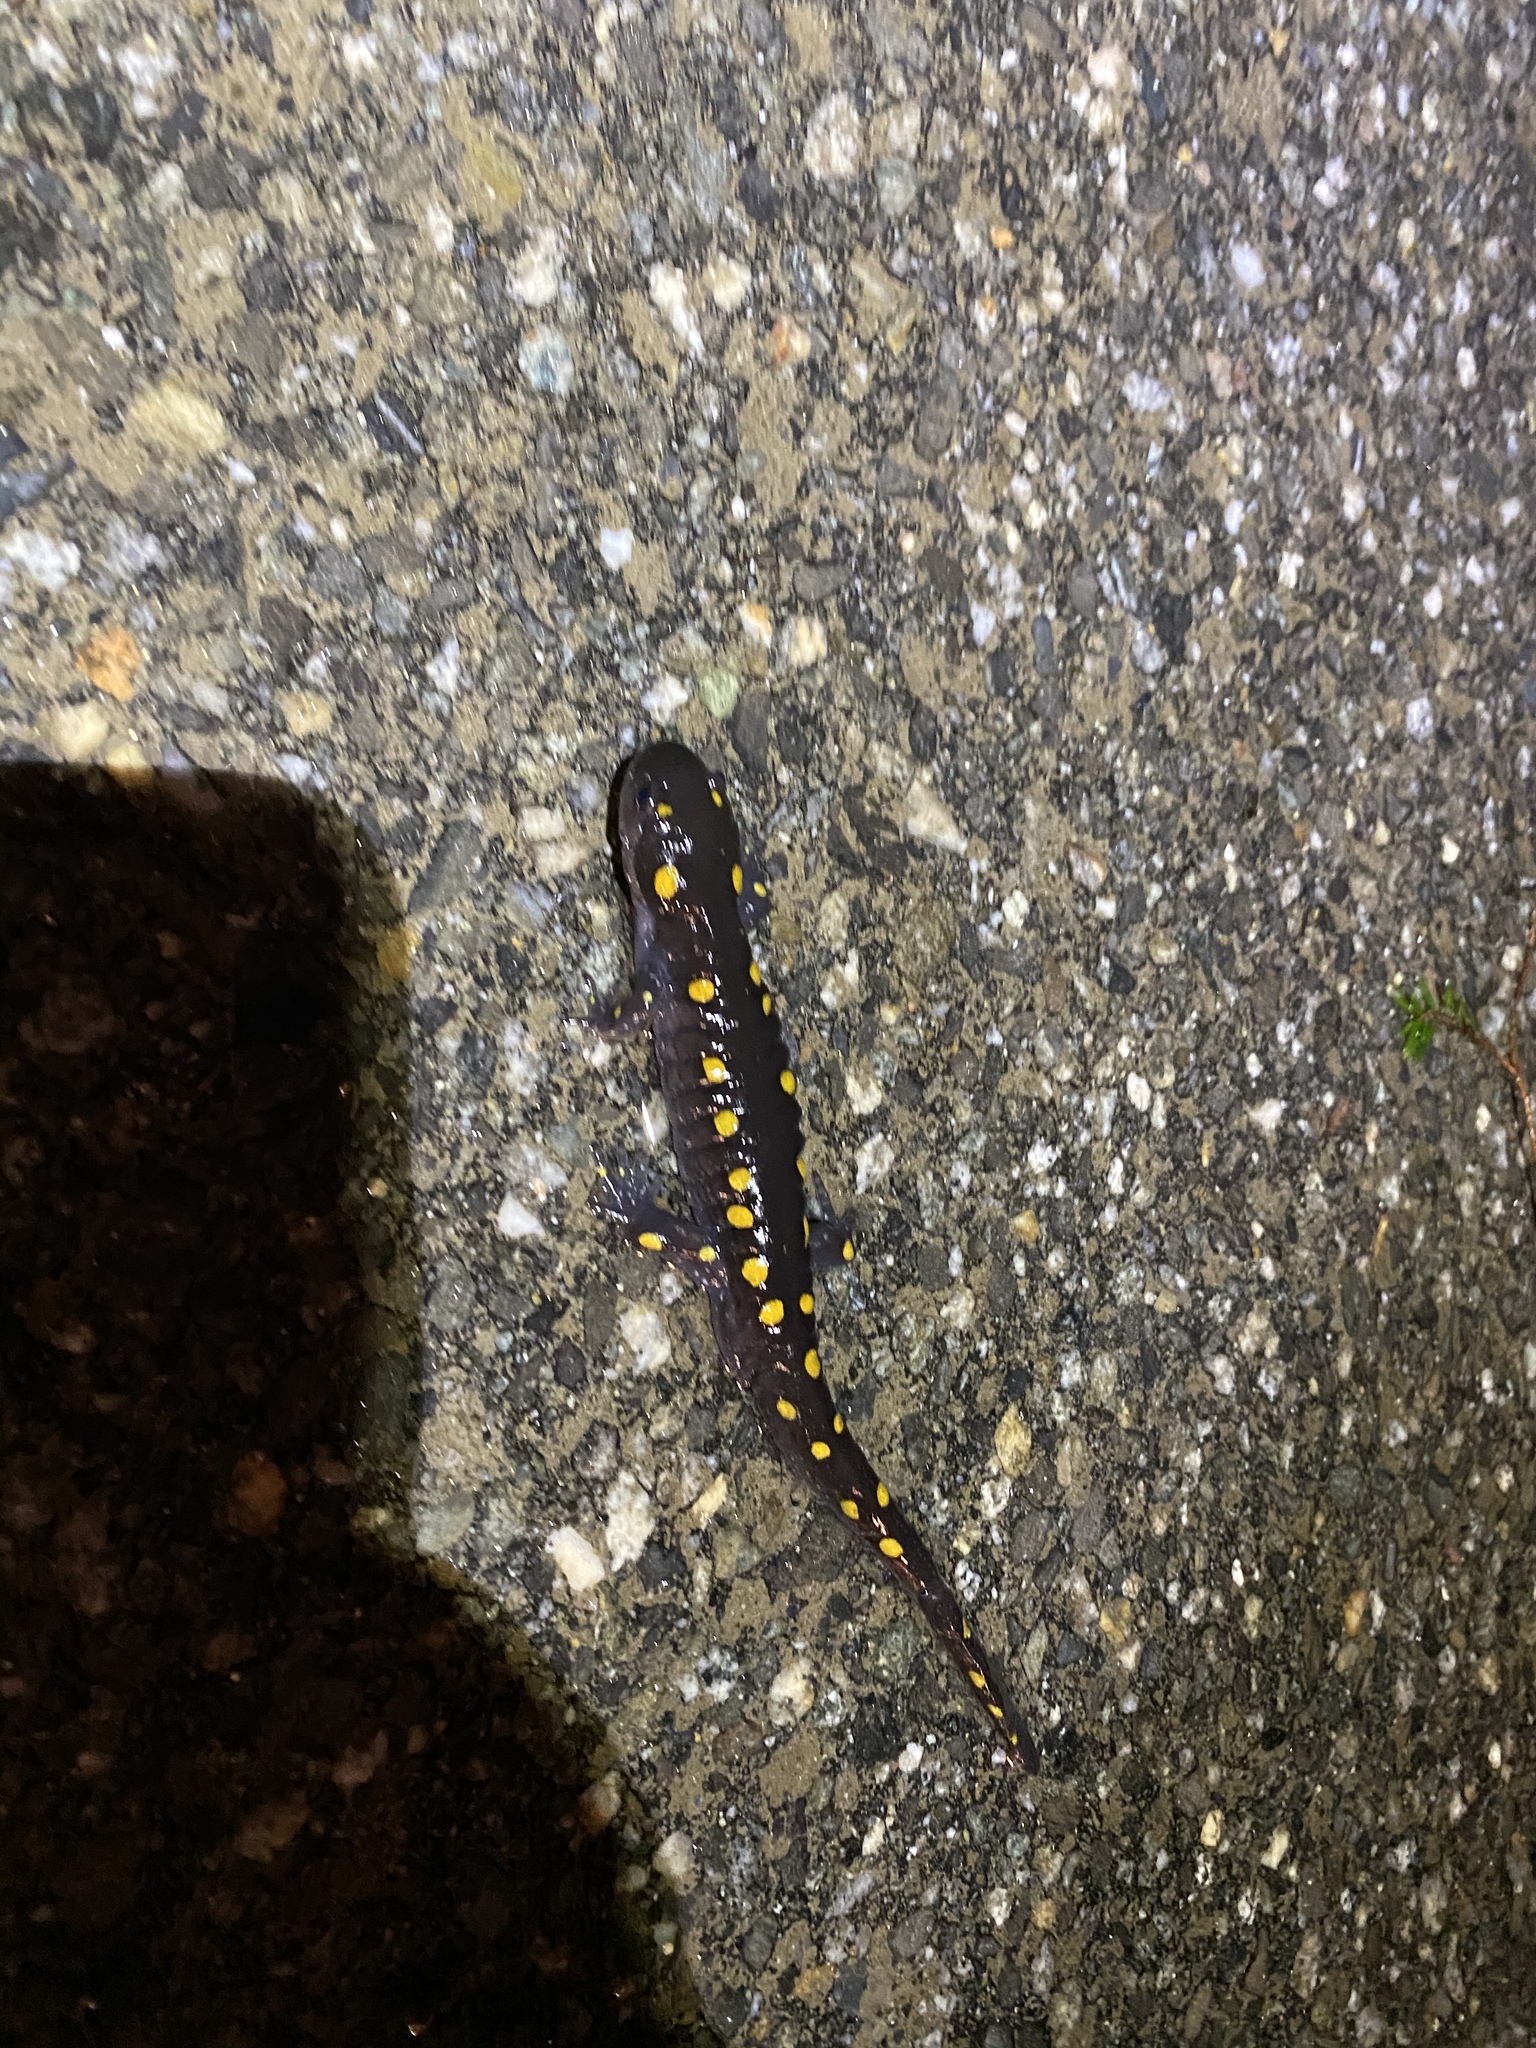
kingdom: Animalia
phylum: Chordata
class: Amphibia
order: Caudata
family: Ambystomatidae
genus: Ambystoma
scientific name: Ambystoma maculatum
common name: Spotted salamander
